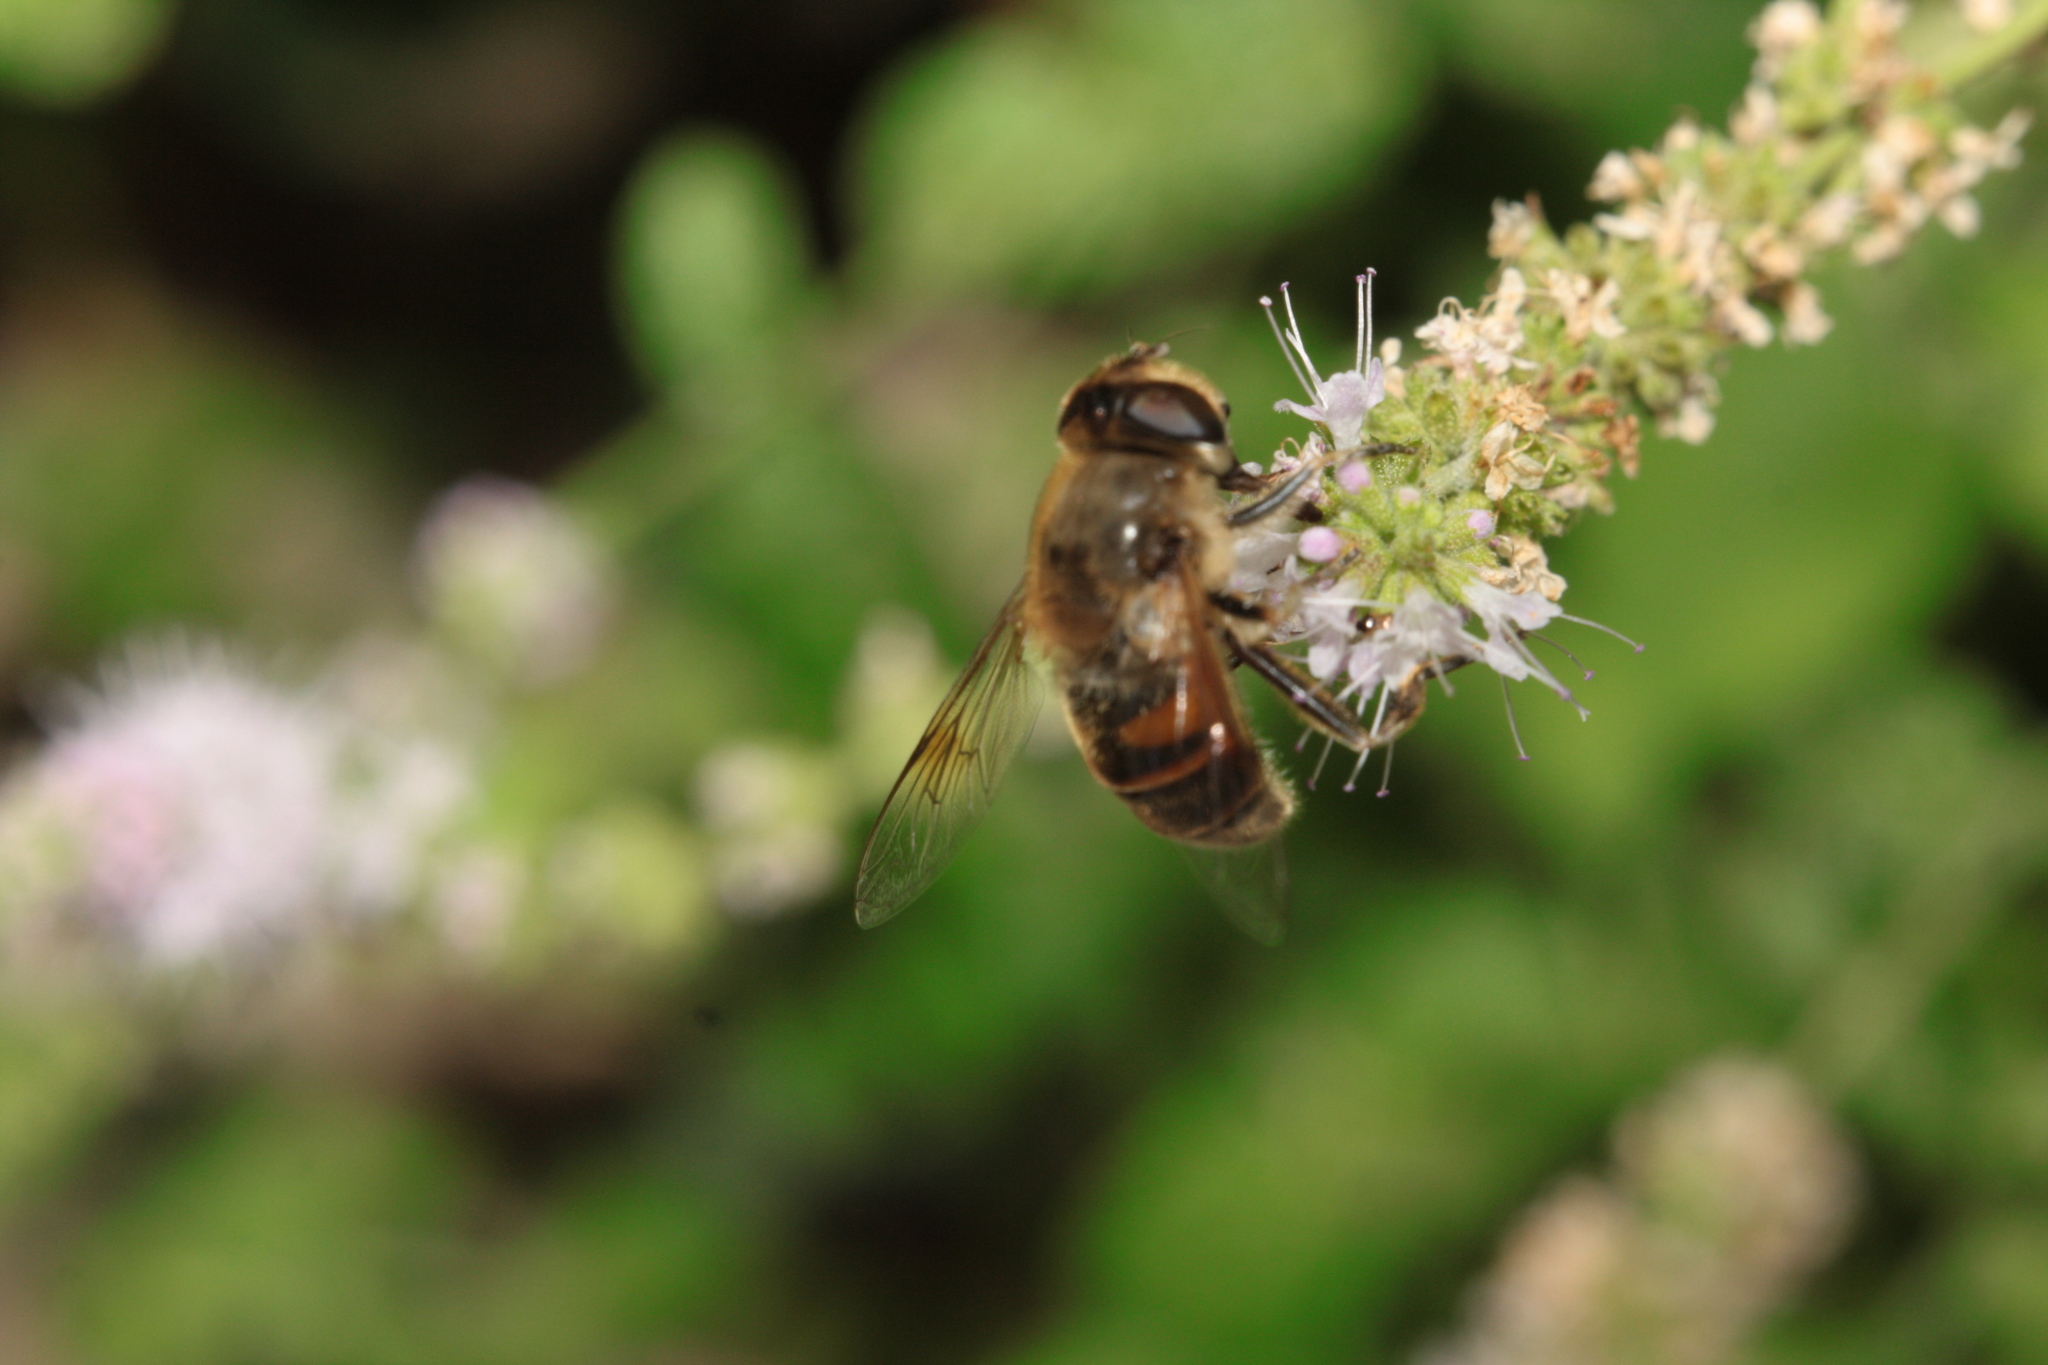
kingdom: Animalia
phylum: Arthropoda
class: Insecta
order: Diptera
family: Syrphidae
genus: Eristalis
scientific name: Eristalis tenax
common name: Drone fly
